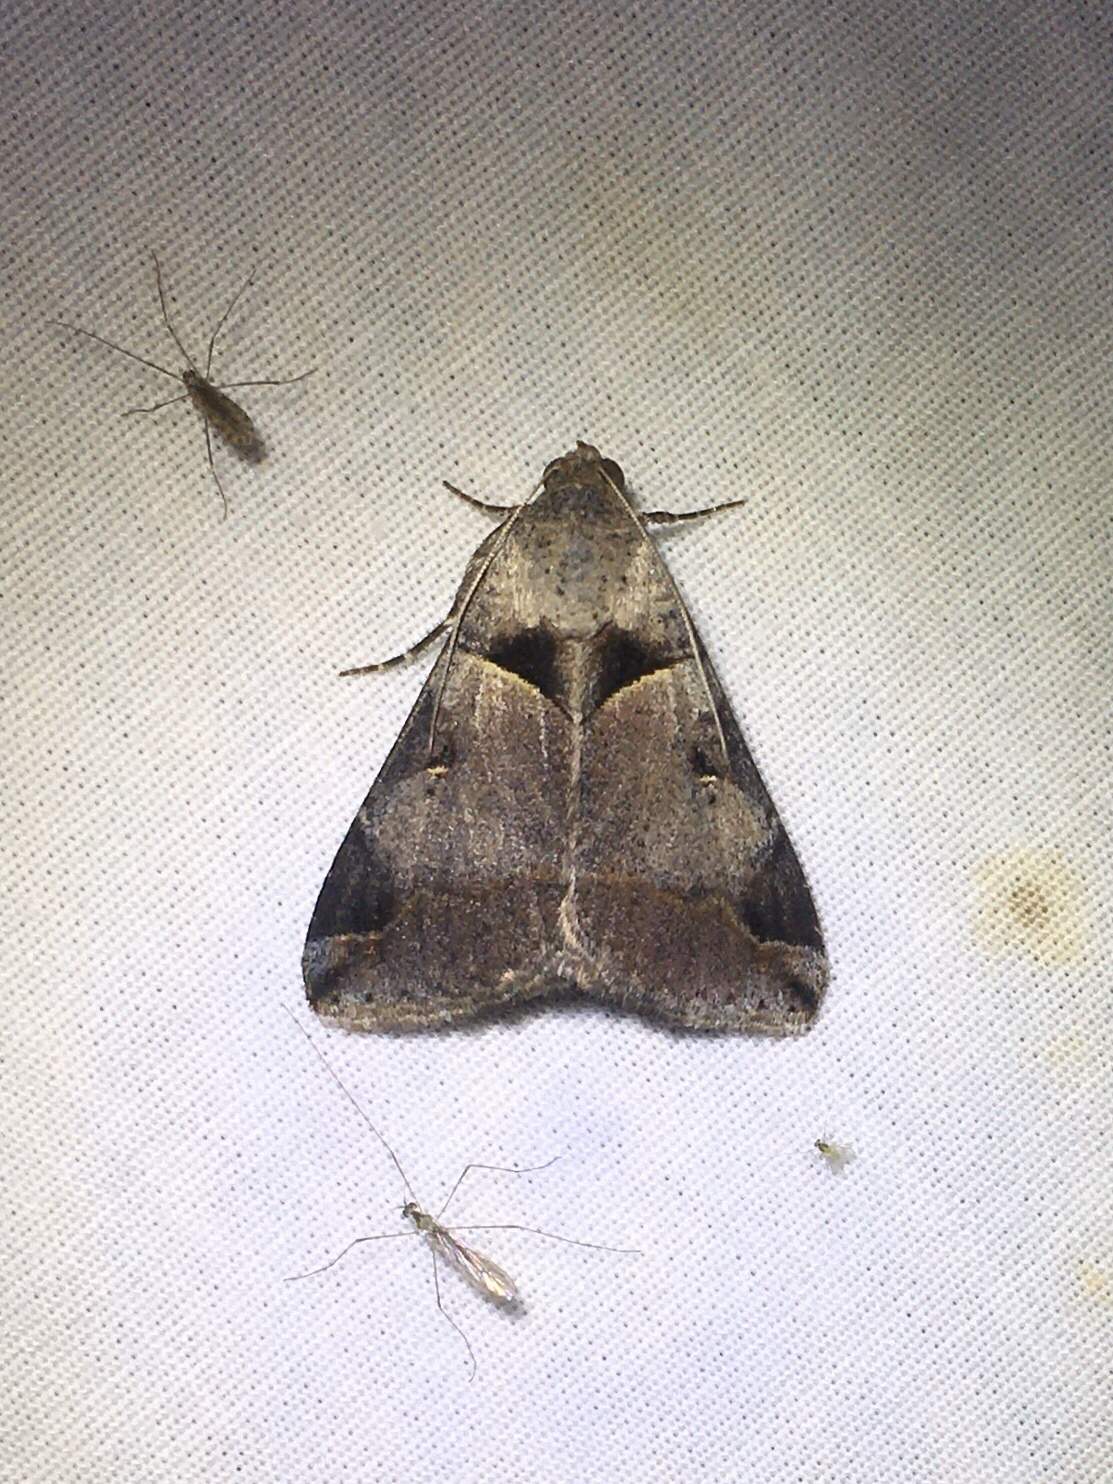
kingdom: Animalia
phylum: Arthropoda
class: Insecta
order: Lepidoptera
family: Erebidae
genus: Melipotis
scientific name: Melipotis florida
